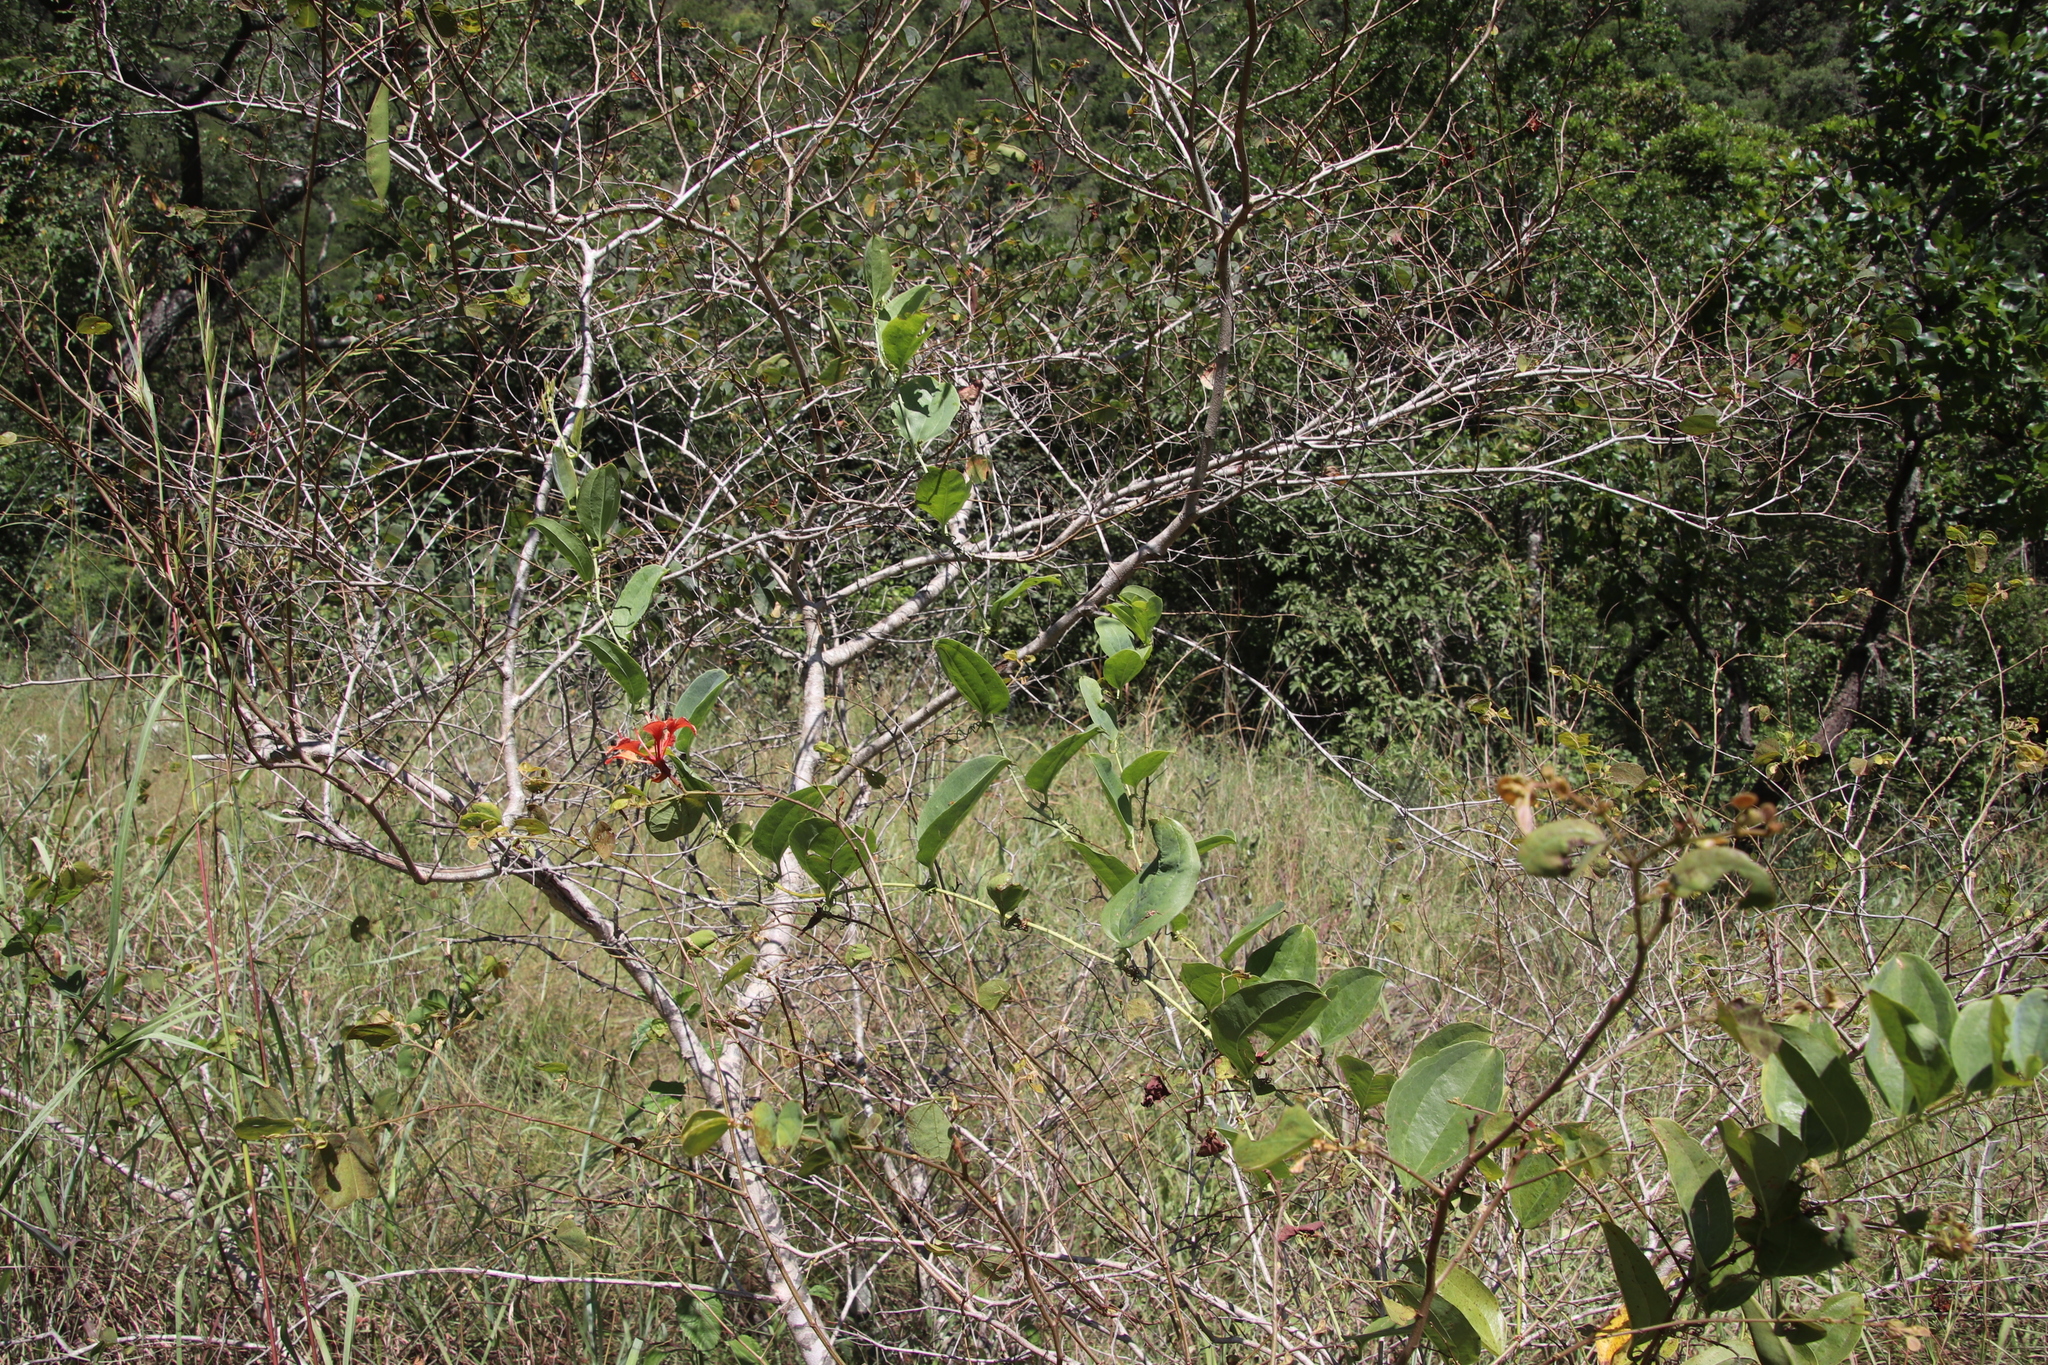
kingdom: Plantae
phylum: Tracheophyta
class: Magnoliopsida
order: Fabales
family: Fabaceae
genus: Bauhinia
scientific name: Bauhinia galpinii
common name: African plume
